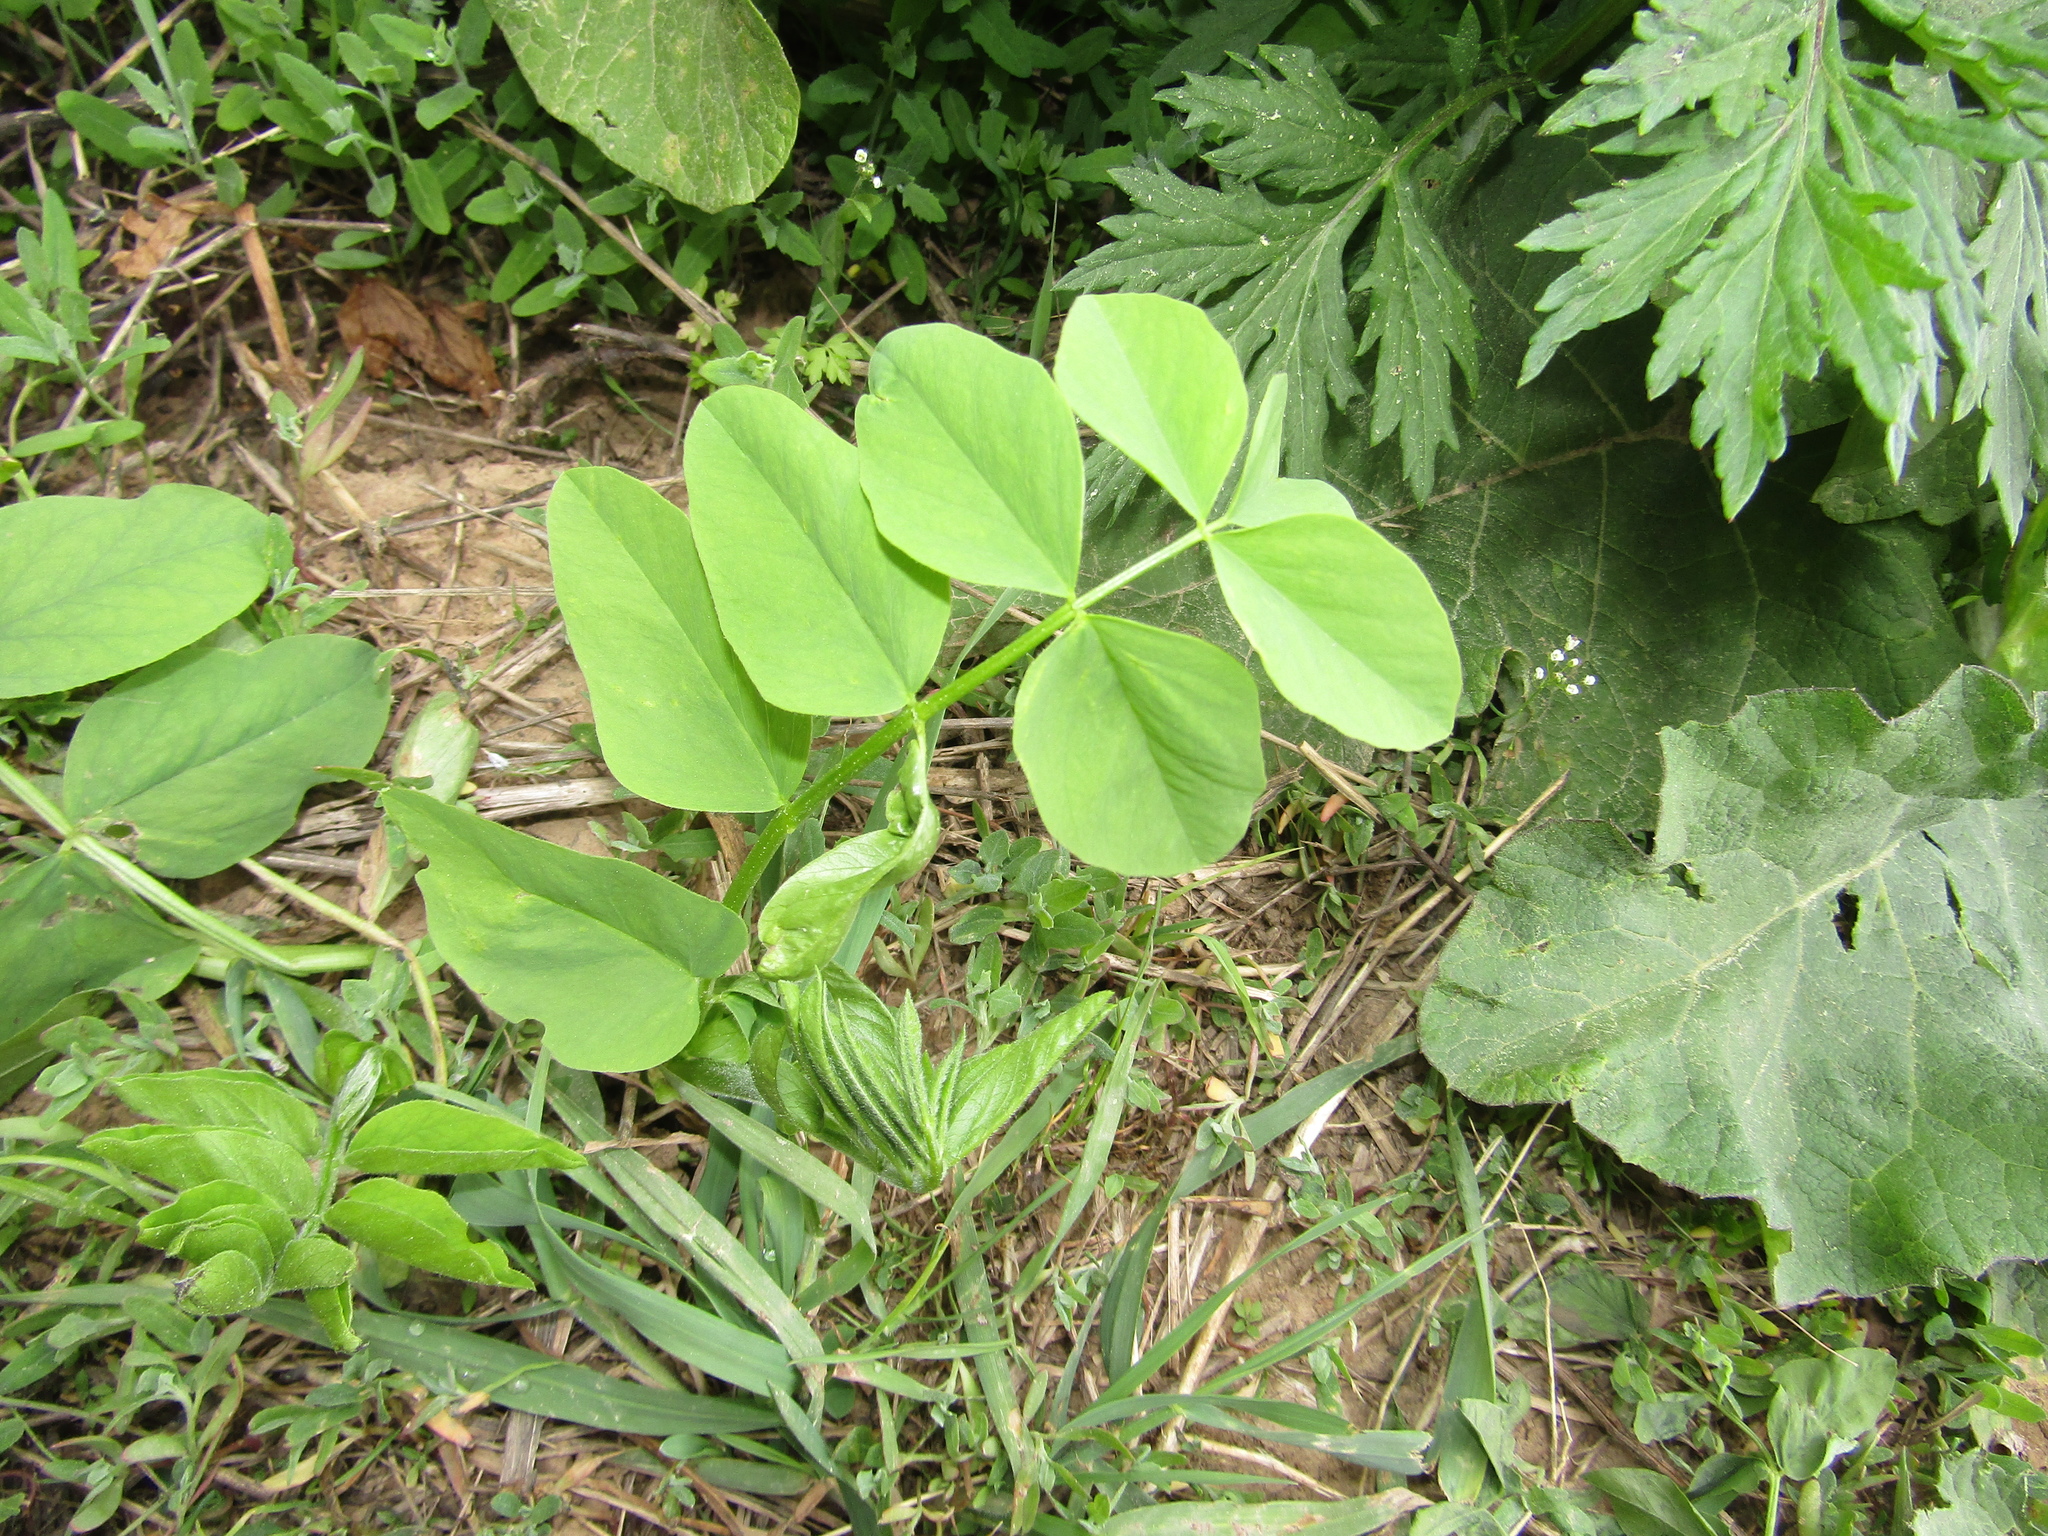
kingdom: Plantae
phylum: Tracheophyta
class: Magnoliopsida
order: Fabales
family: Fabaceae
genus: Galega
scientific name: Galega orientalis
